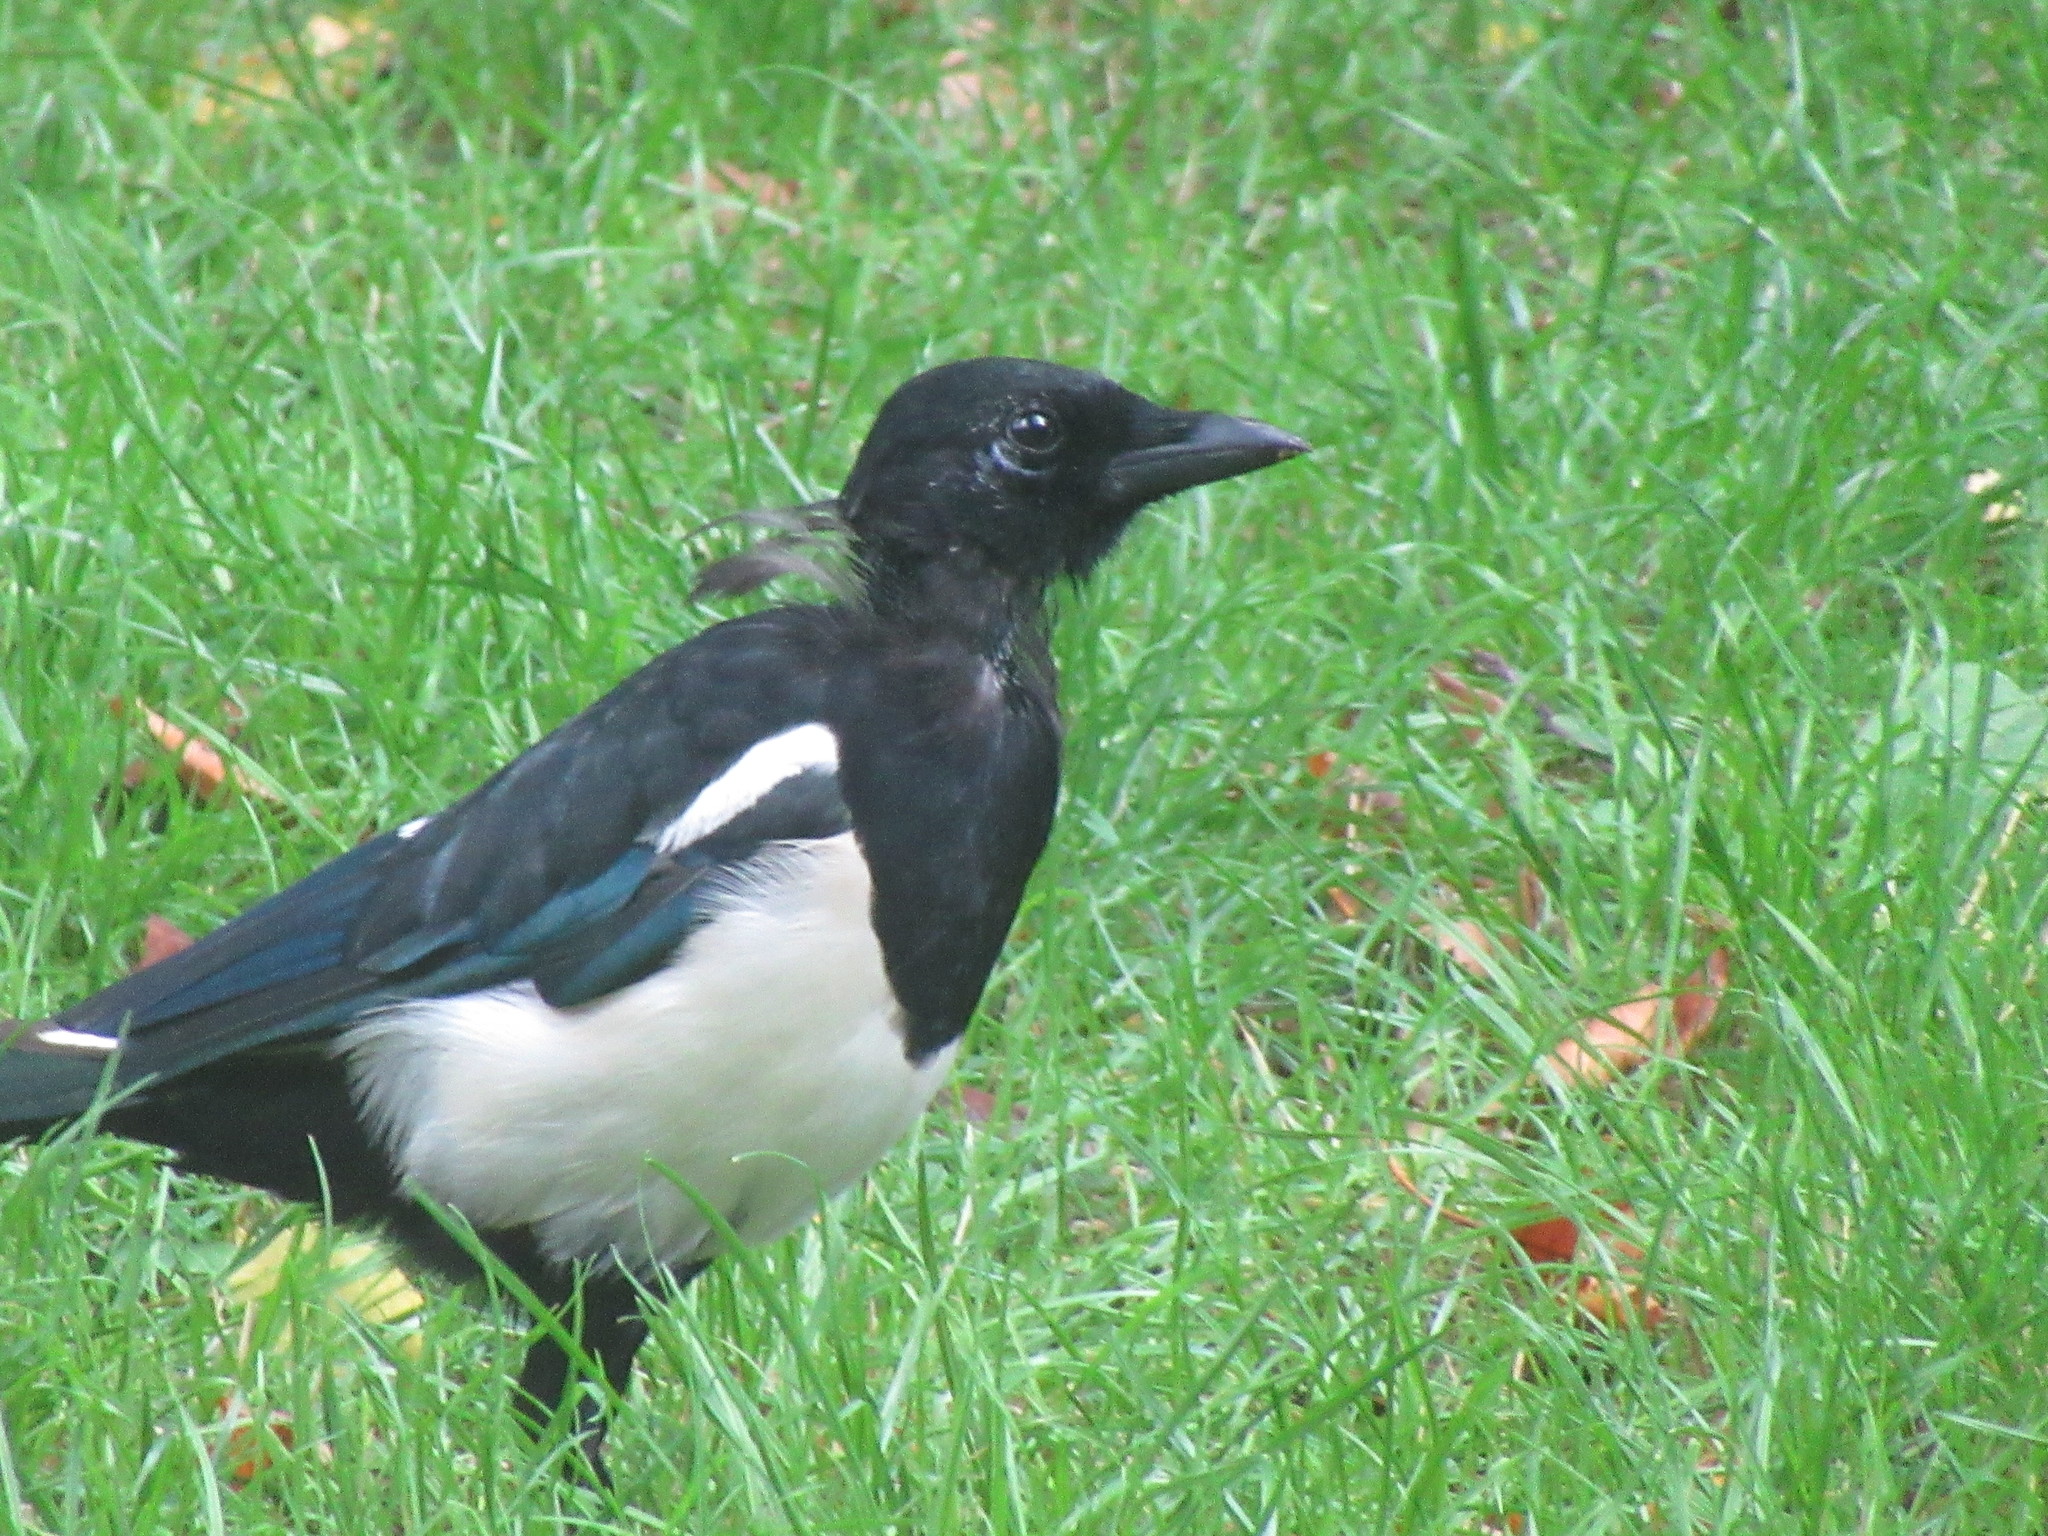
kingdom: Animalia
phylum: Chordata
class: Aves
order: Passeriformes
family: Corvidae
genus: Pica
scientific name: Pica pica
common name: Eurasian magpie
